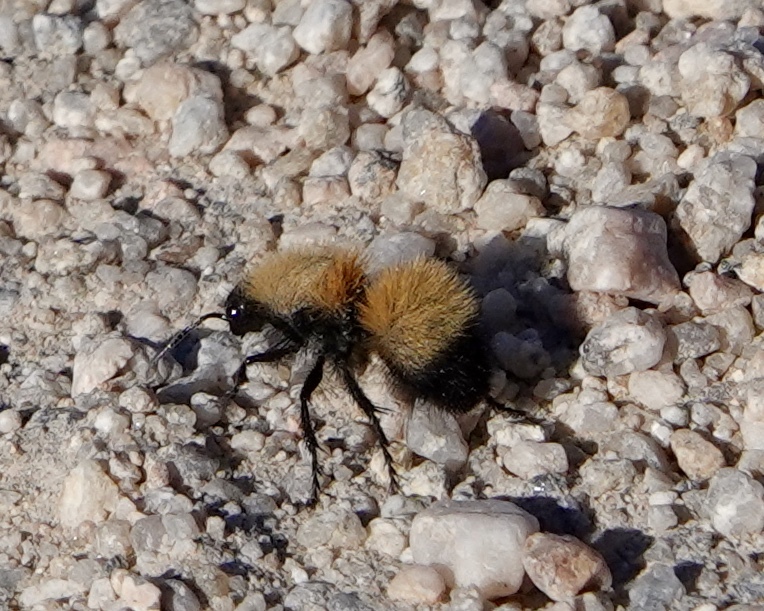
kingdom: Animalia
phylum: Arthropoda
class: Insecta
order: Hymenoptera
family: Mutillidae
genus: Dasymutilla
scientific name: Dasymutilla arenivaga
